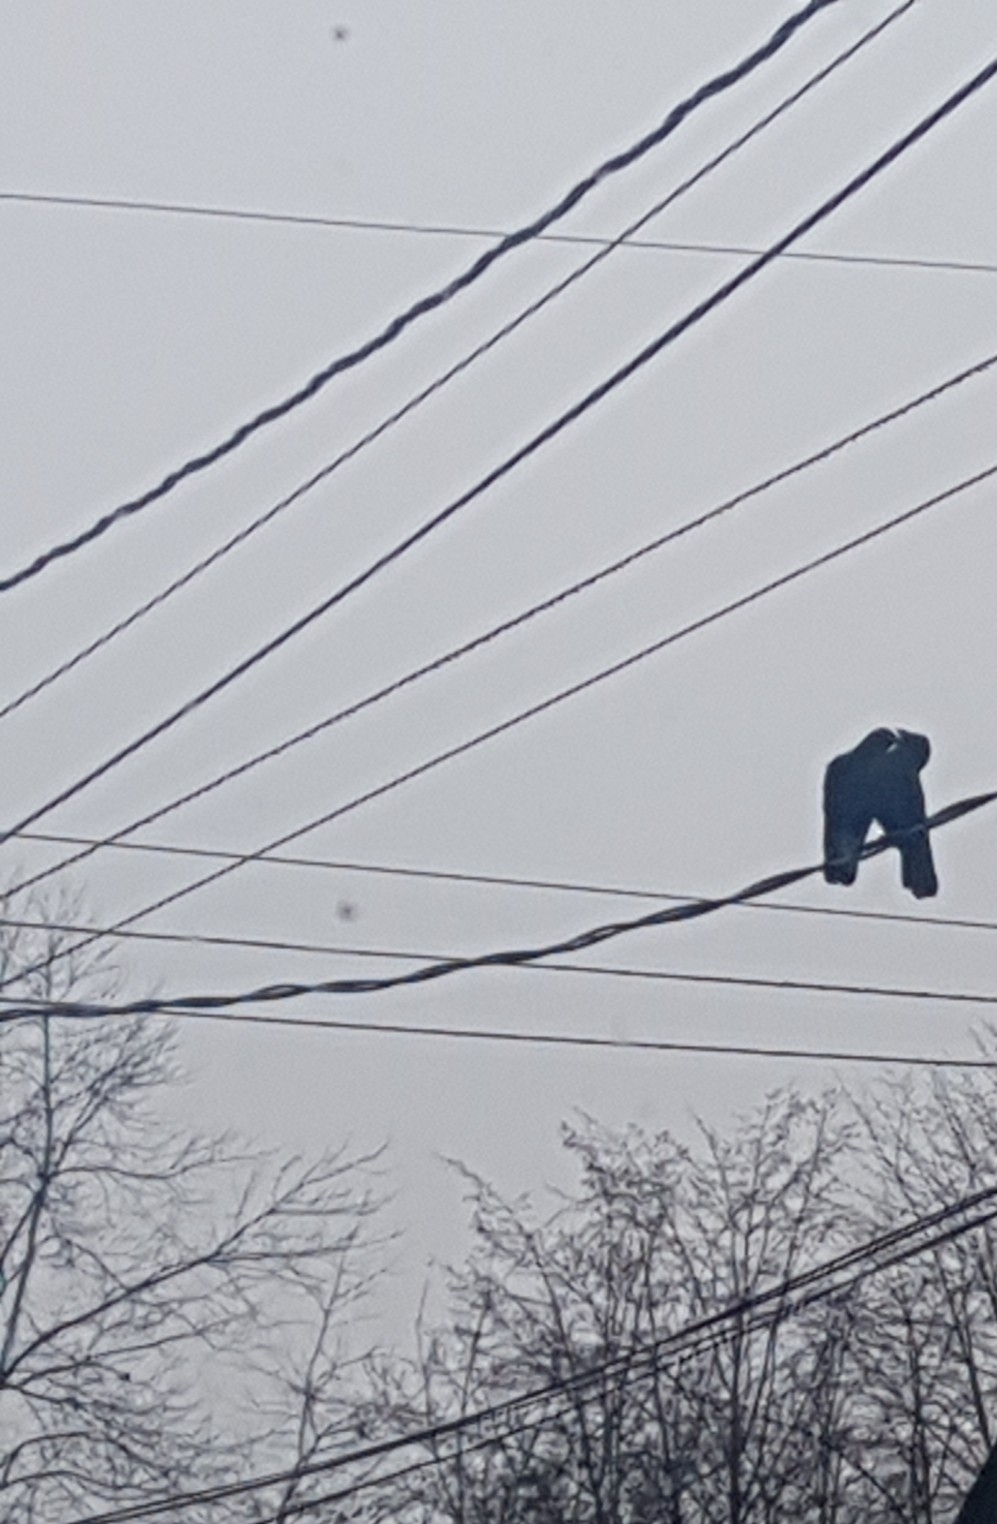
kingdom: Animalia
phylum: Chordata
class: Aves
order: Passeriformes
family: Corvidae
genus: Corvus
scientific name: Corvus brachyrhynchos
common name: American crow
